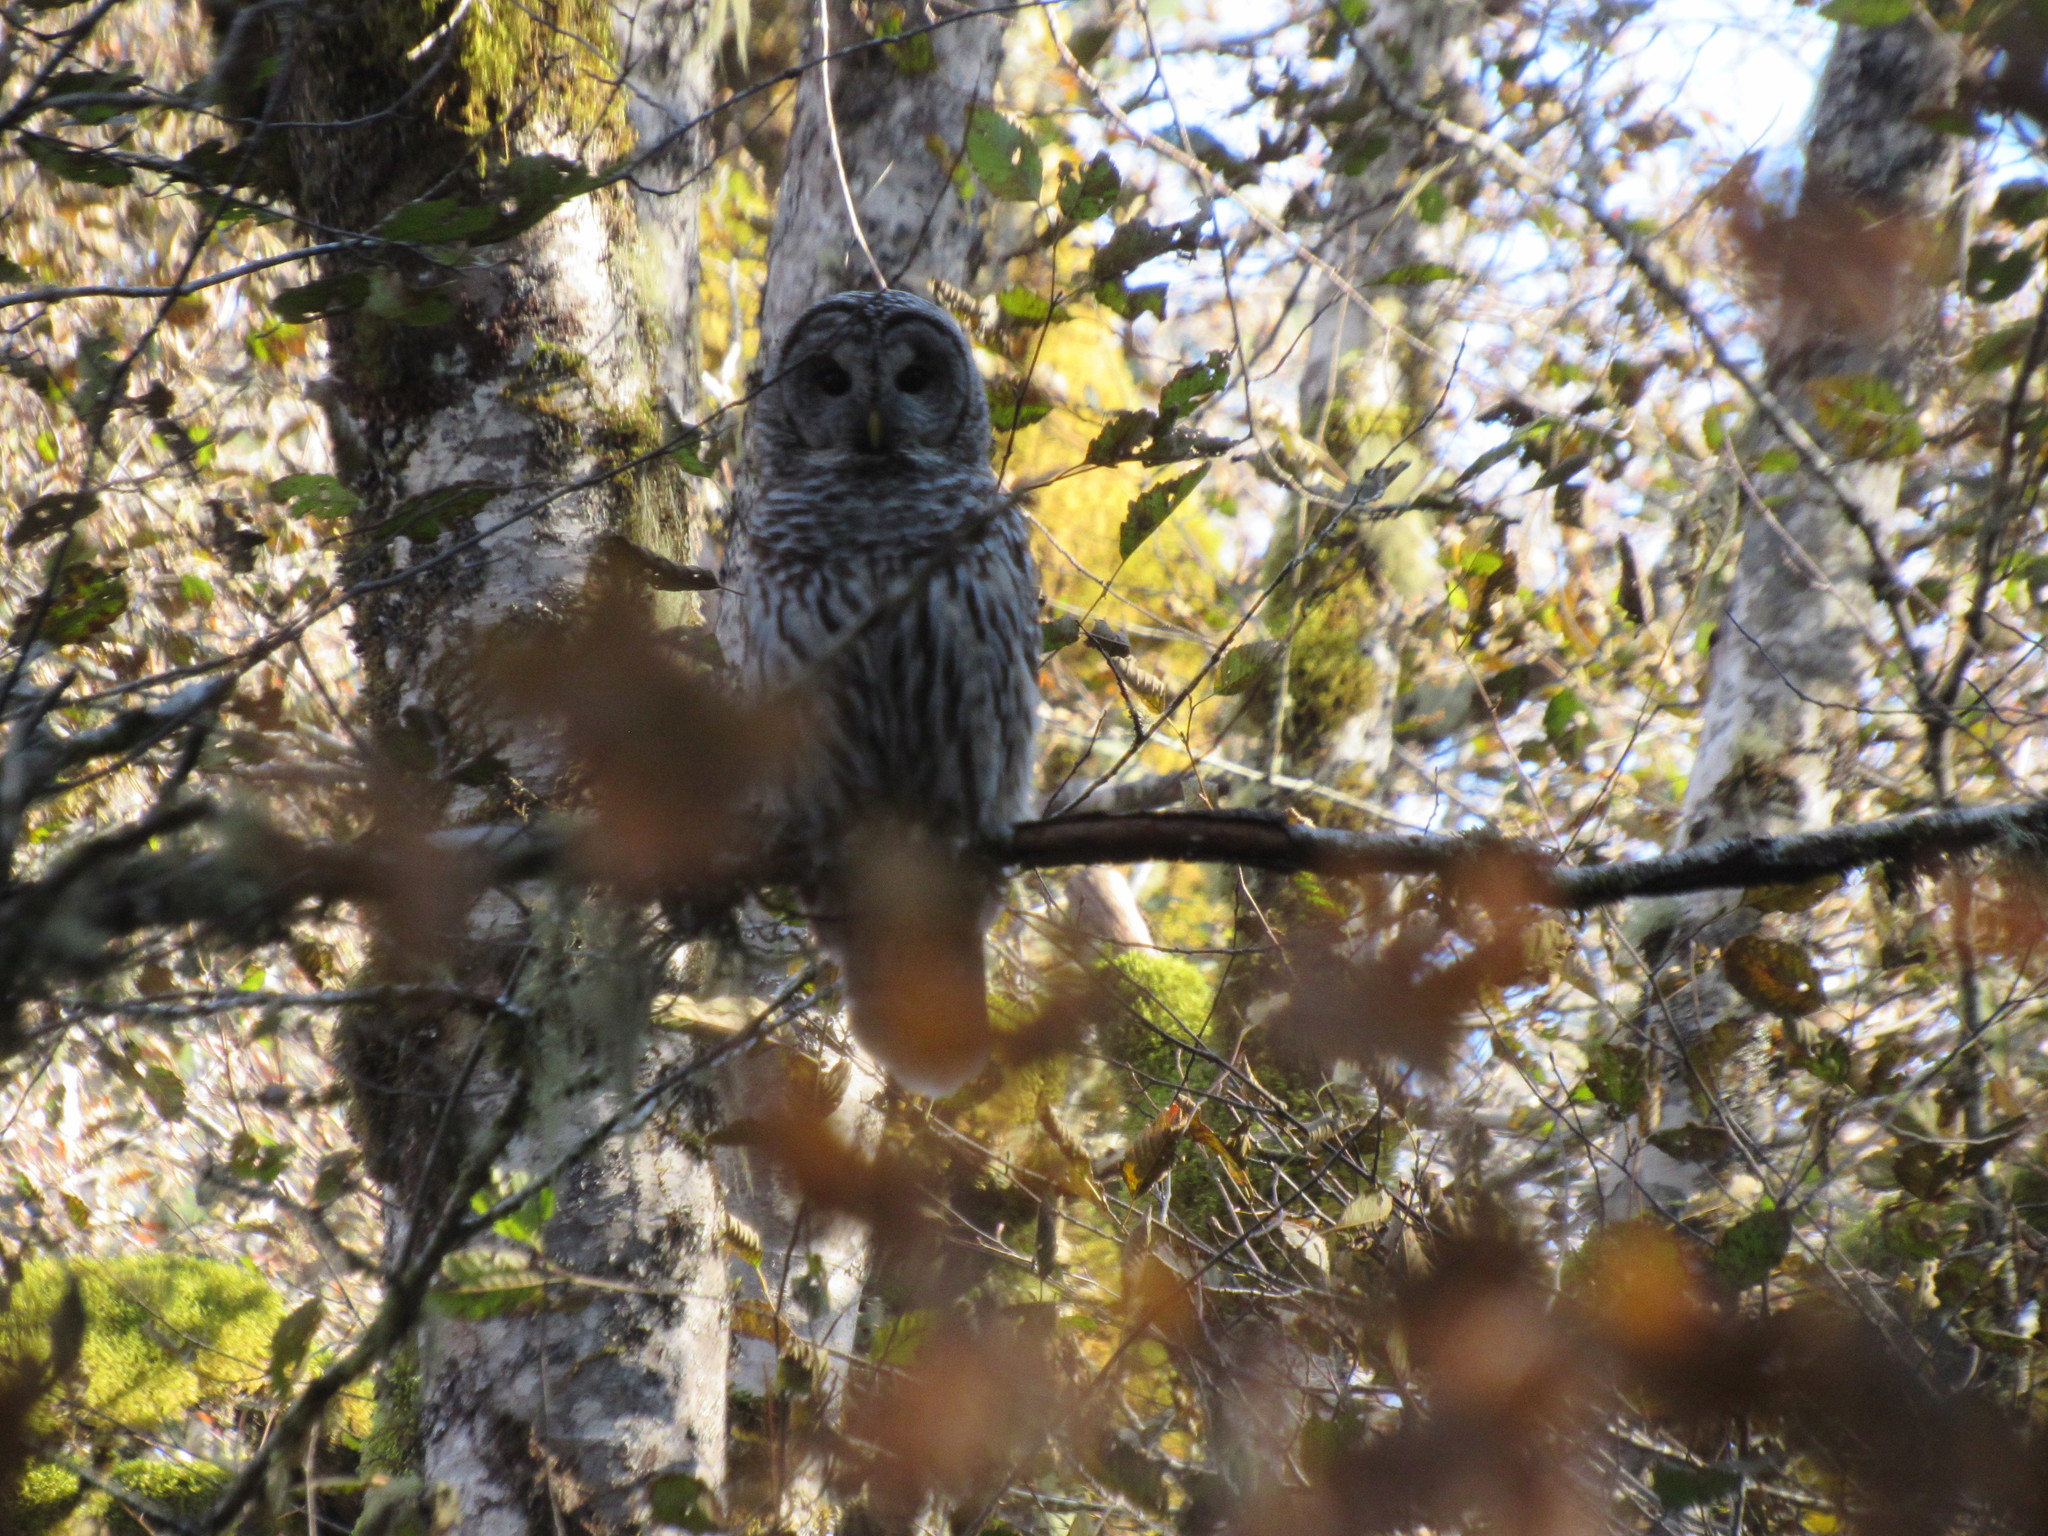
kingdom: Animalia
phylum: Chordata
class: Aves
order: Strigiformes
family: Strigidae
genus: Strix
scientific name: Strix varia
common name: Barred owl
